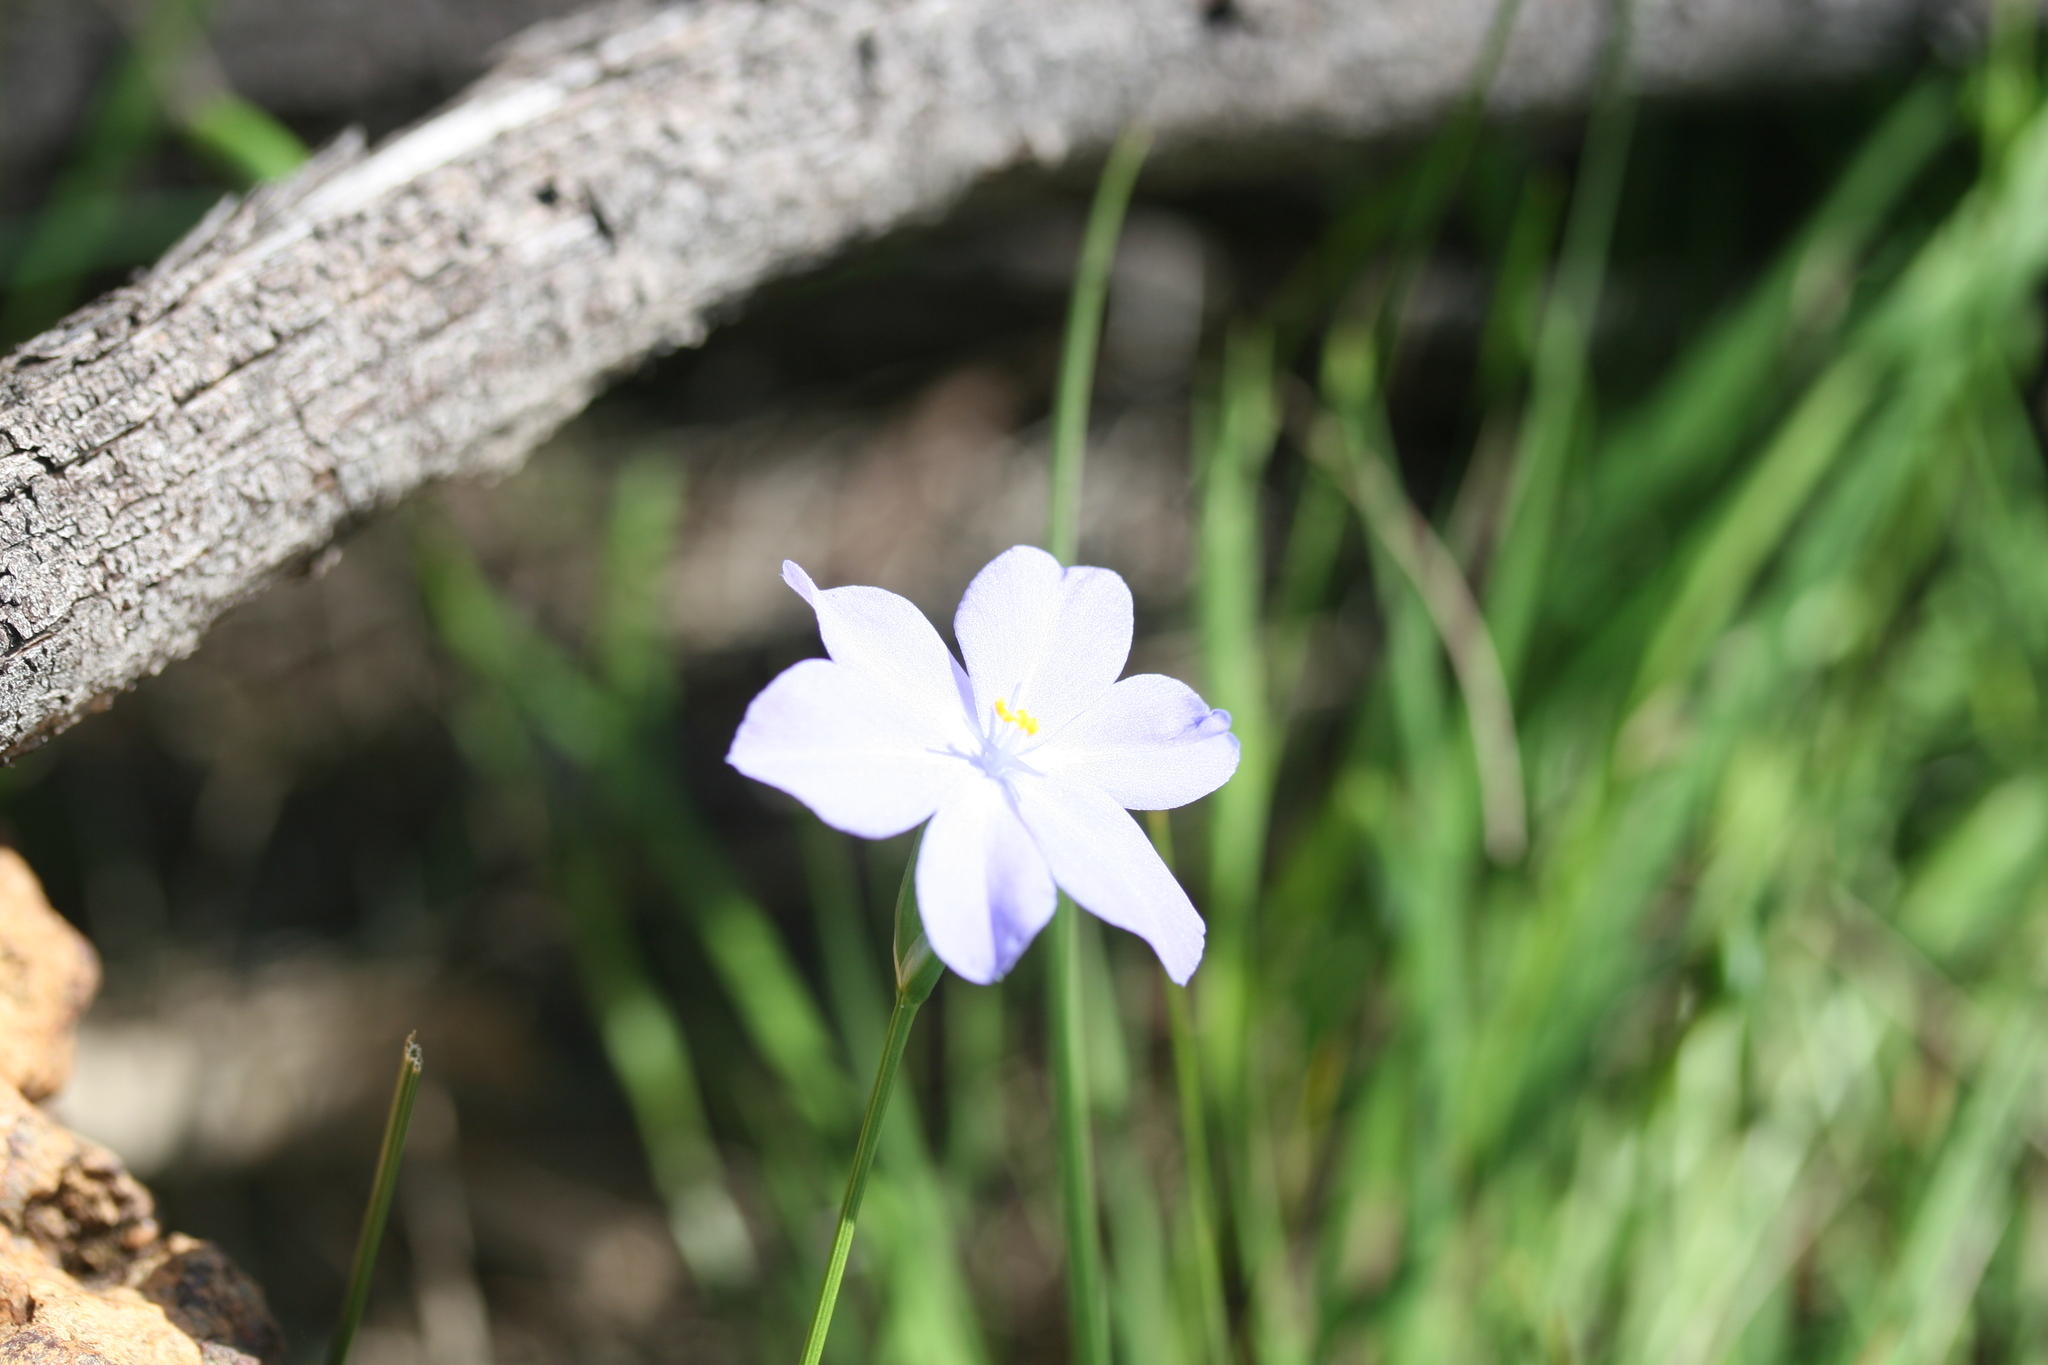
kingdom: Plantae
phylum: Tracheophyta
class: Liliopsida
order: Asparagales
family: Iridaceae
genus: Orthrosanthus
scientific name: Orthrosanthus laxus
